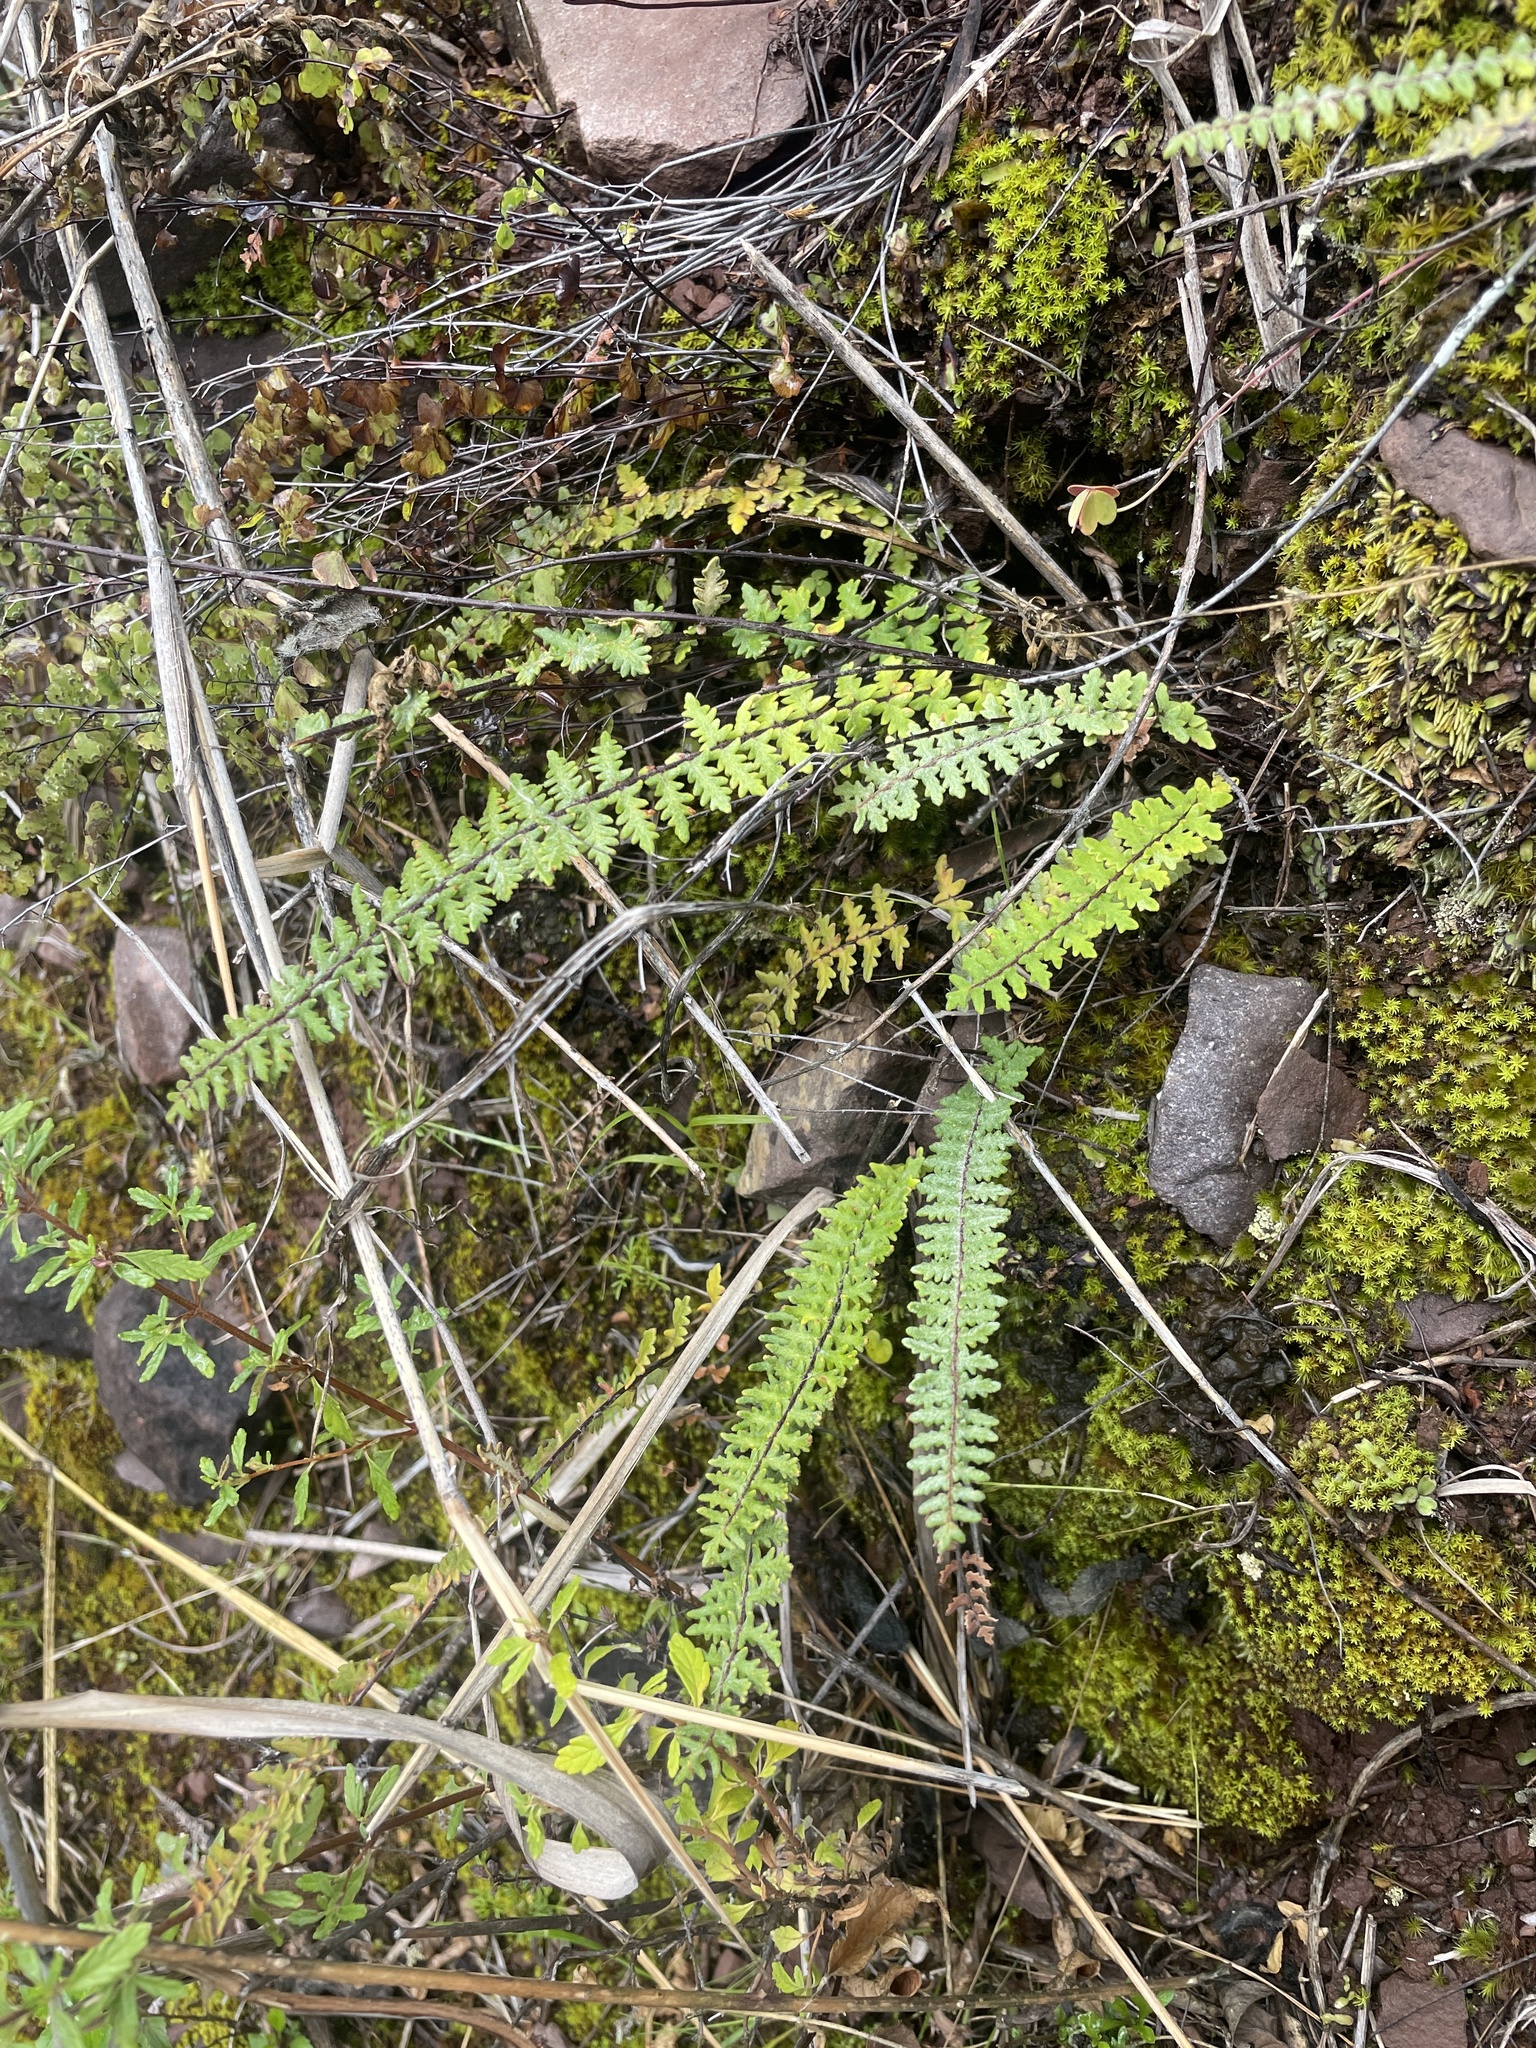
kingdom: Plantae
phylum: Tracheophyta
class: Polypodiopsida
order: Polypodiales
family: Pteridaceae
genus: Myriopteris
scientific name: Myriopteris aurea
